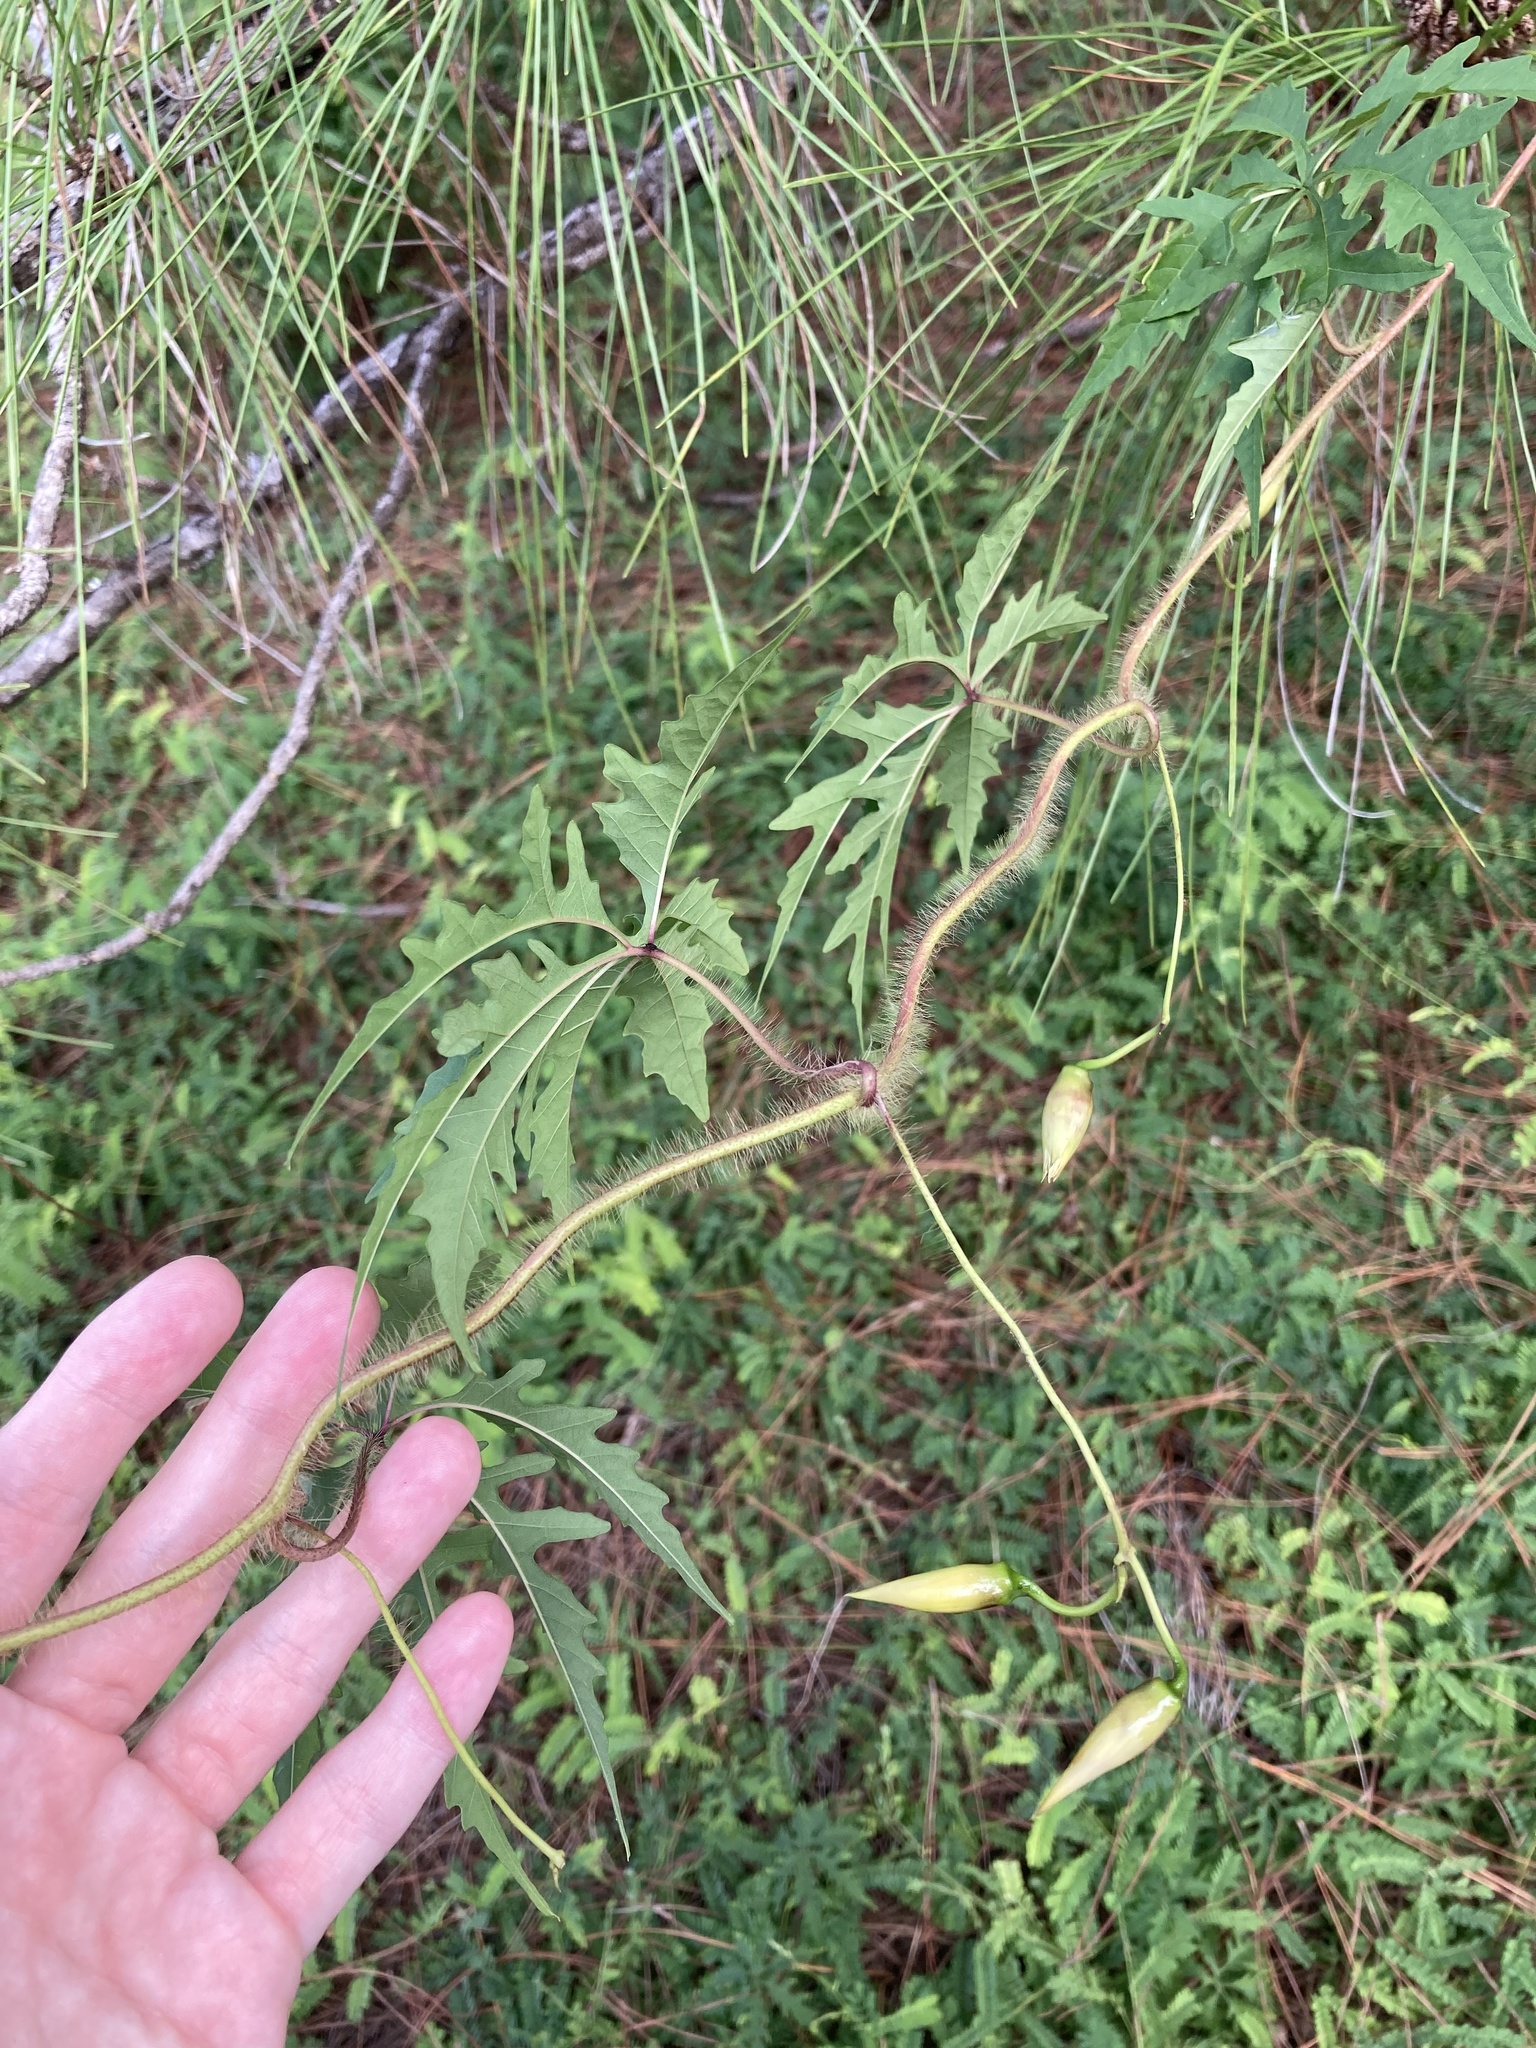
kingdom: Plantae
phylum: Tracheophyta
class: Magnoliopsida
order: Solanales
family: Convolvulaceae
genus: Distimake
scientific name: Distimake dissectus
